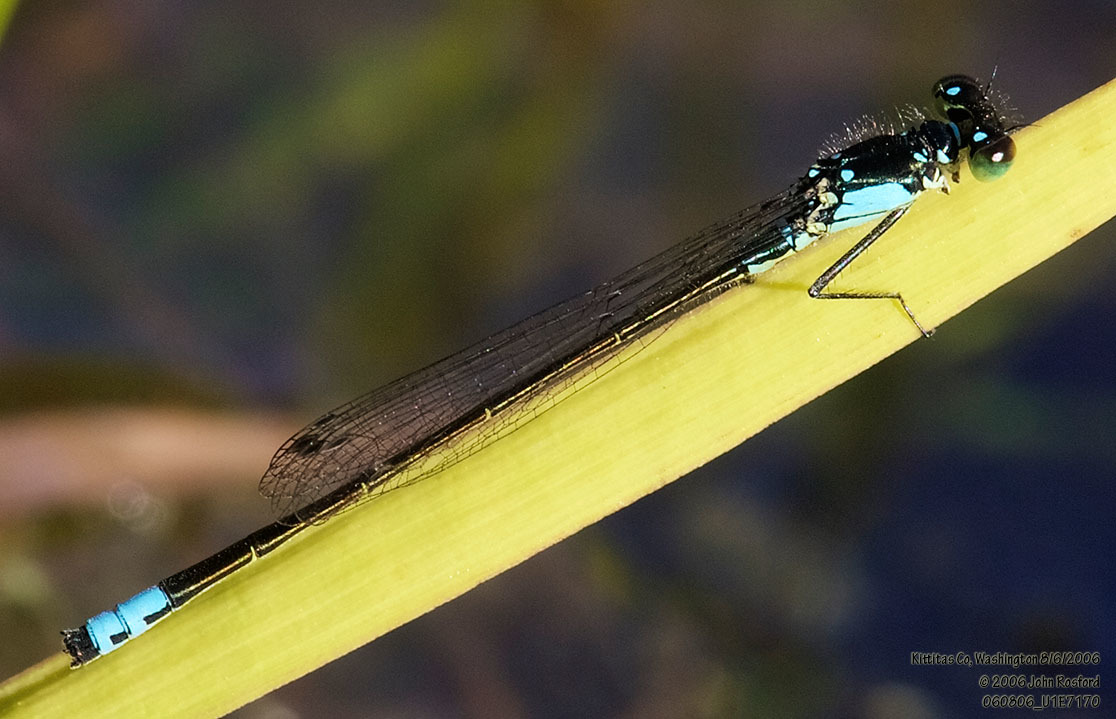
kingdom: Animalia
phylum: Arthropoda
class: Insecta
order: Odonata
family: Coenagrionidae
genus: Ischnura
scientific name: Ischnura cervula
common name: Pacific forktail
